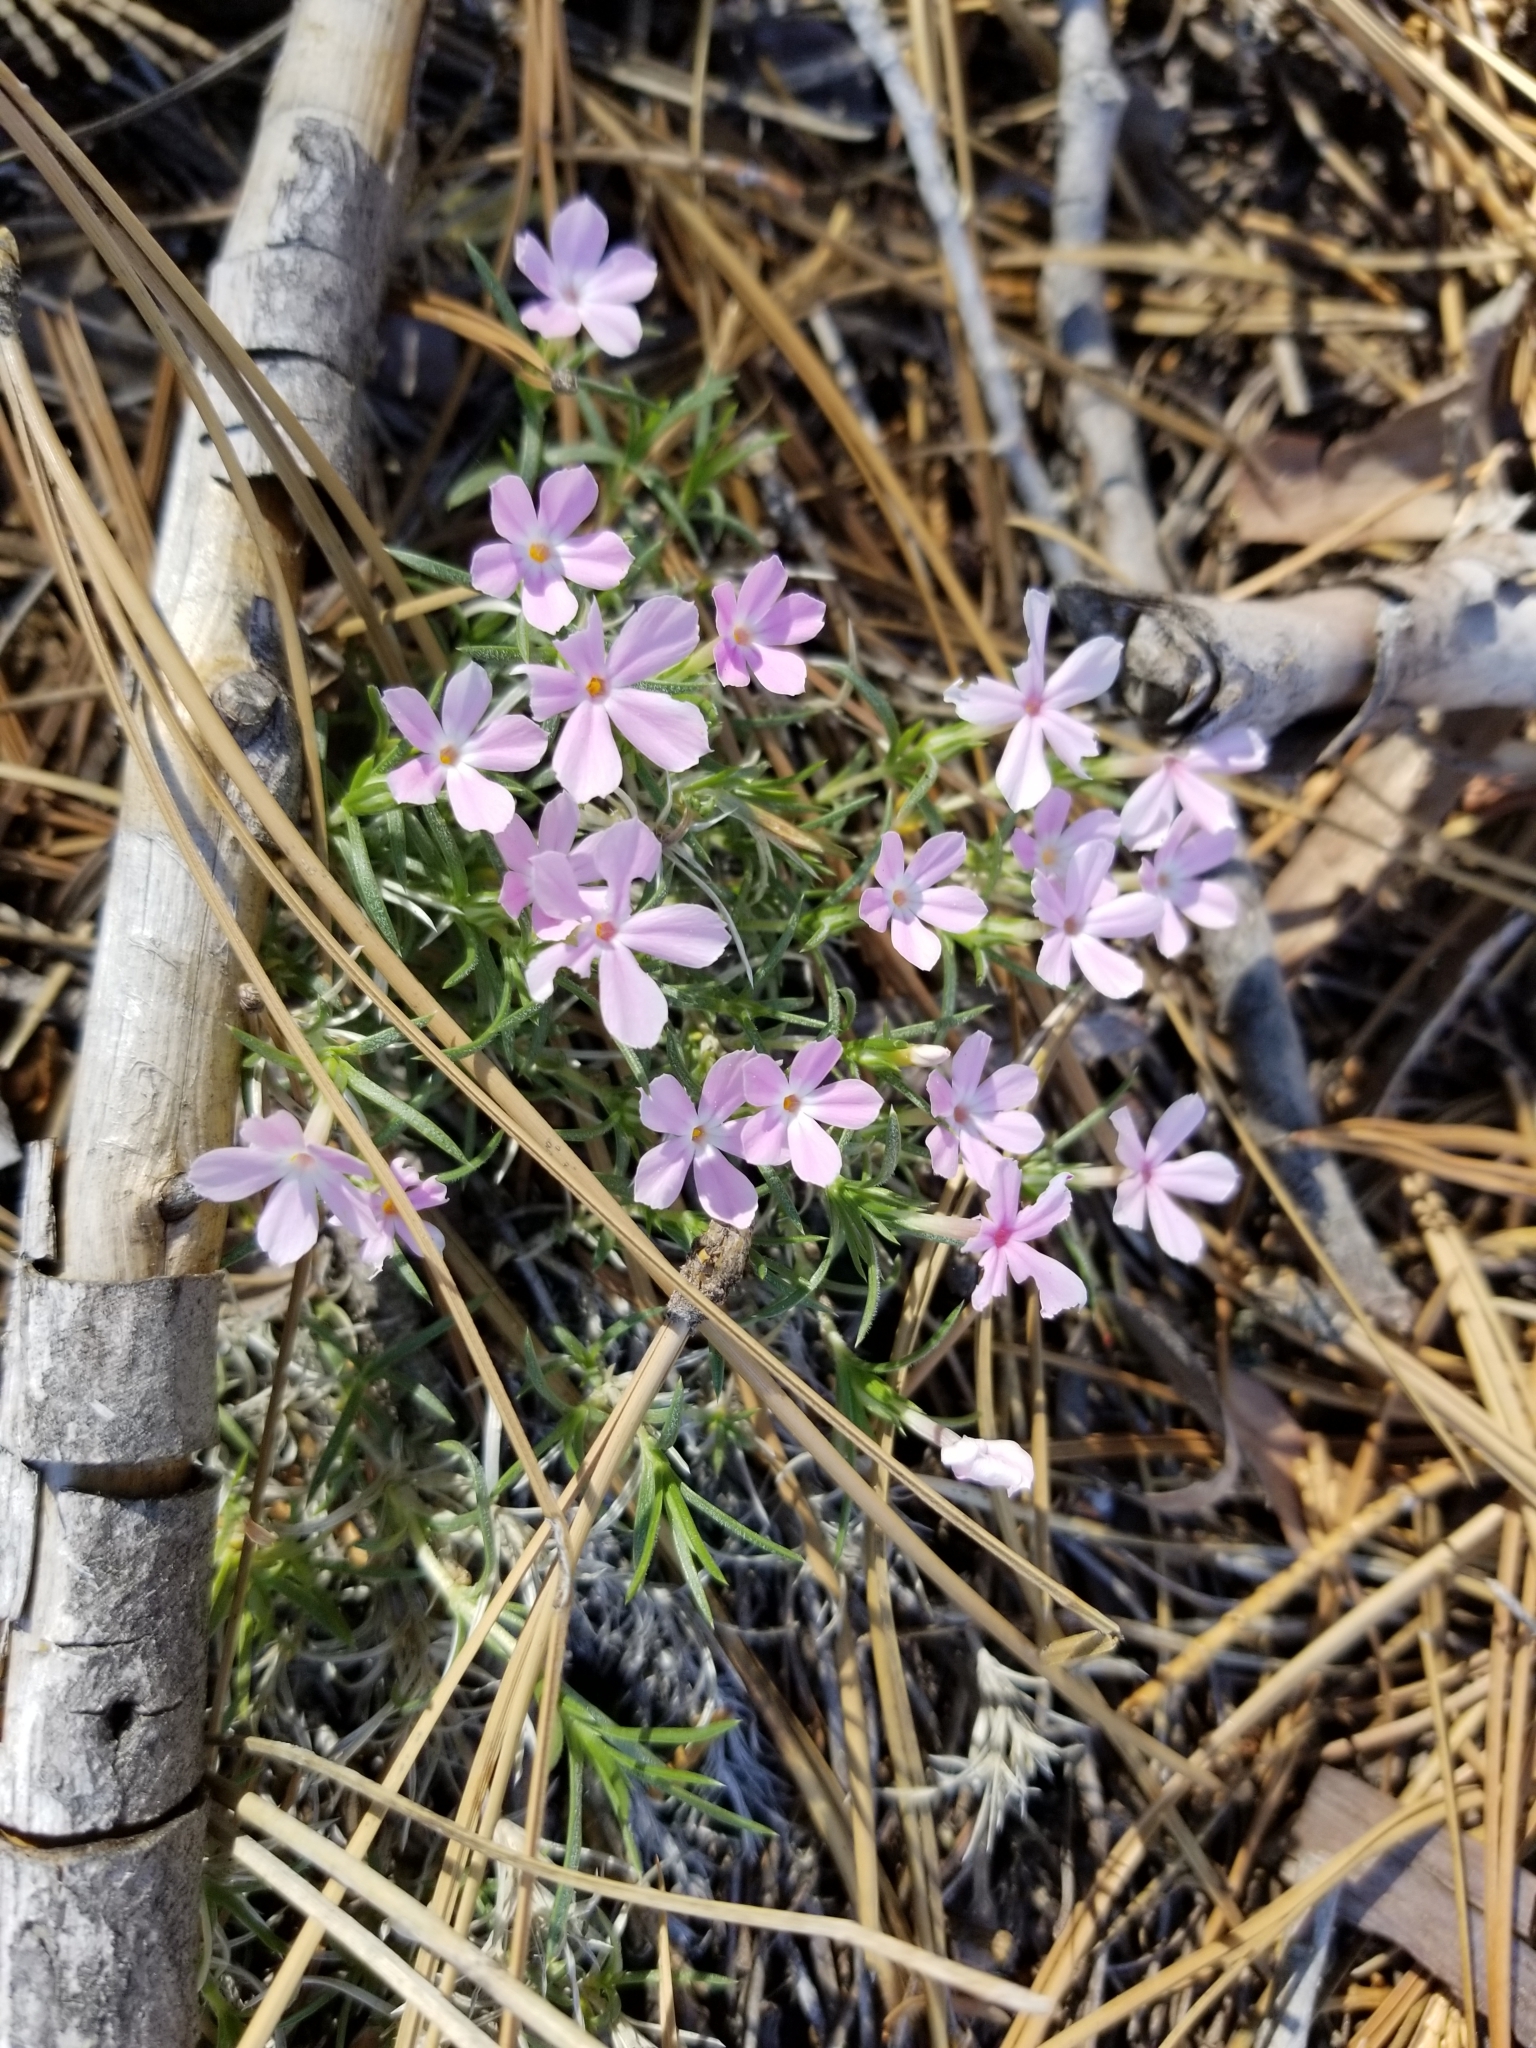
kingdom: Plantae
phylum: Tracheophyta
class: Magnoliopsida
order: Ericales
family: Polemoniaceae
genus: Phlox
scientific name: Phlox austromontana
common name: Desert phlox
